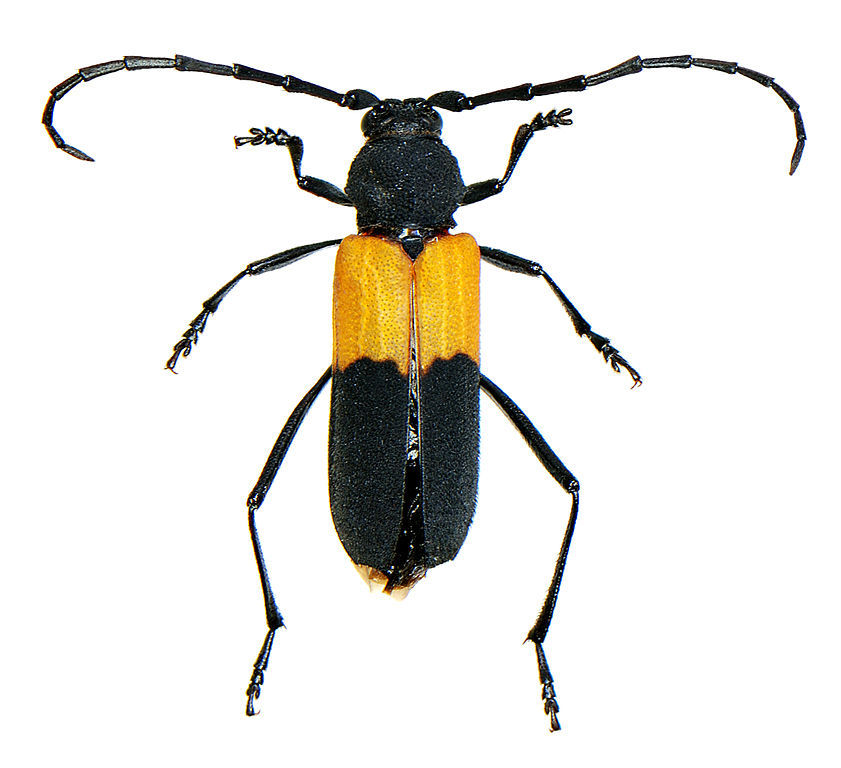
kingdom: Animalia
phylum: Arthropoda
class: Insecta
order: Coleoptera
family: Cerambycidae
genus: Purpuricenus
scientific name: Purpuricenus axillaris
